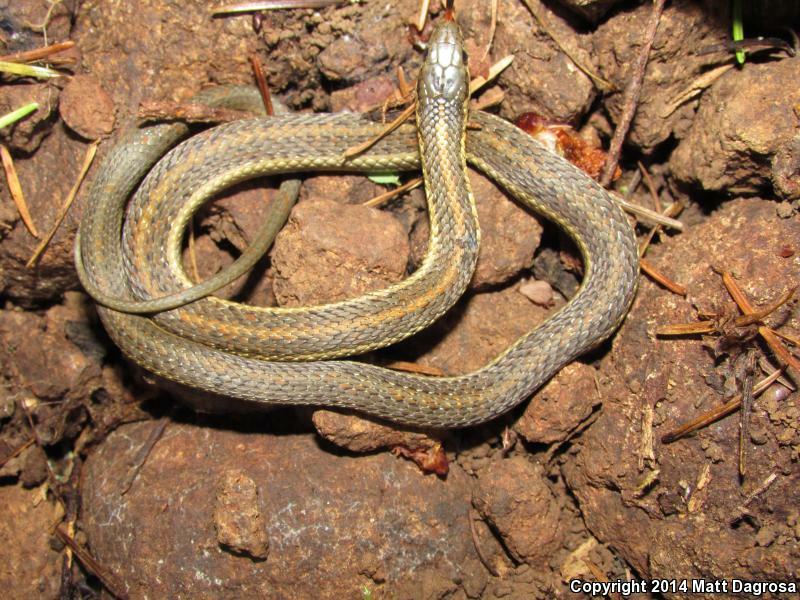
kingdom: Animalia
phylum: Chordata
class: Squamata
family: Colubridae
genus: Thamnophis
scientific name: Thamnophis ordinoides
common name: Northwestern garter snake
